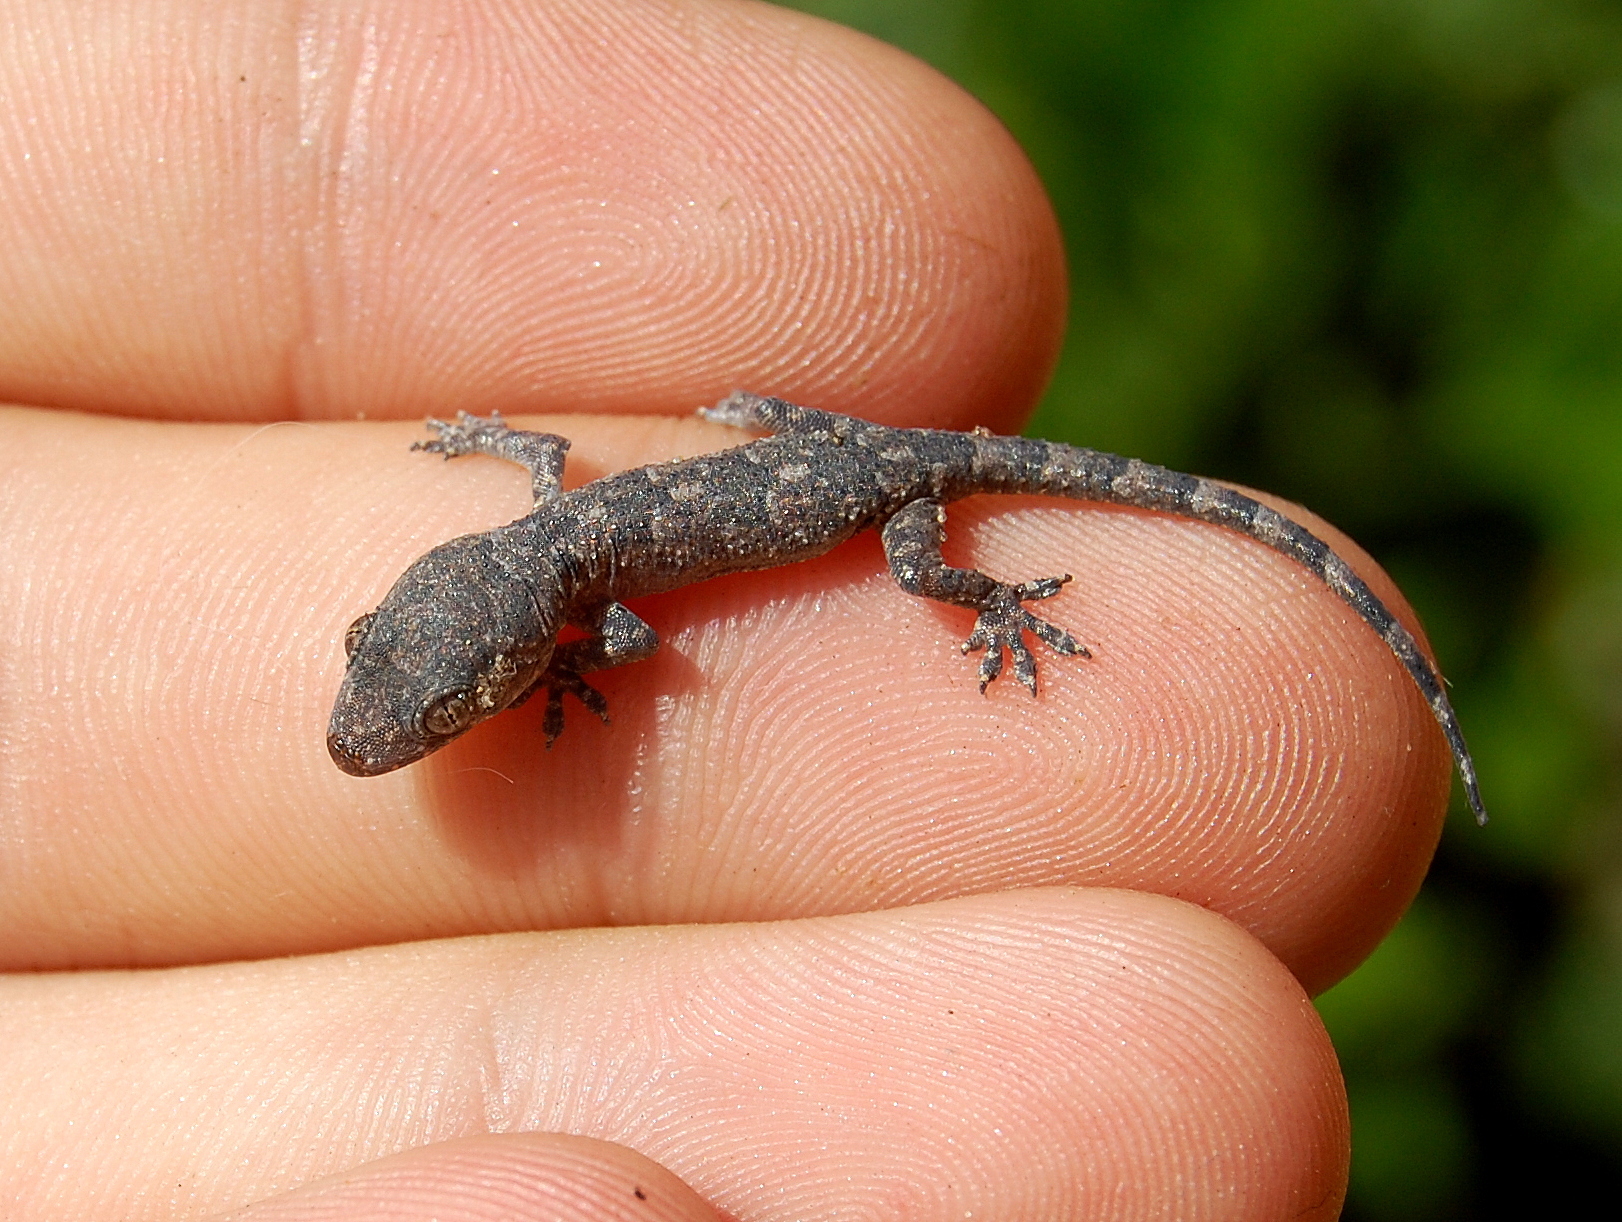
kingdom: Animalia
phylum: Chordata
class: Squamata
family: Gekkonidae
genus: Hemidactylus
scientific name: Hemidactylus mabouia
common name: House gecko
